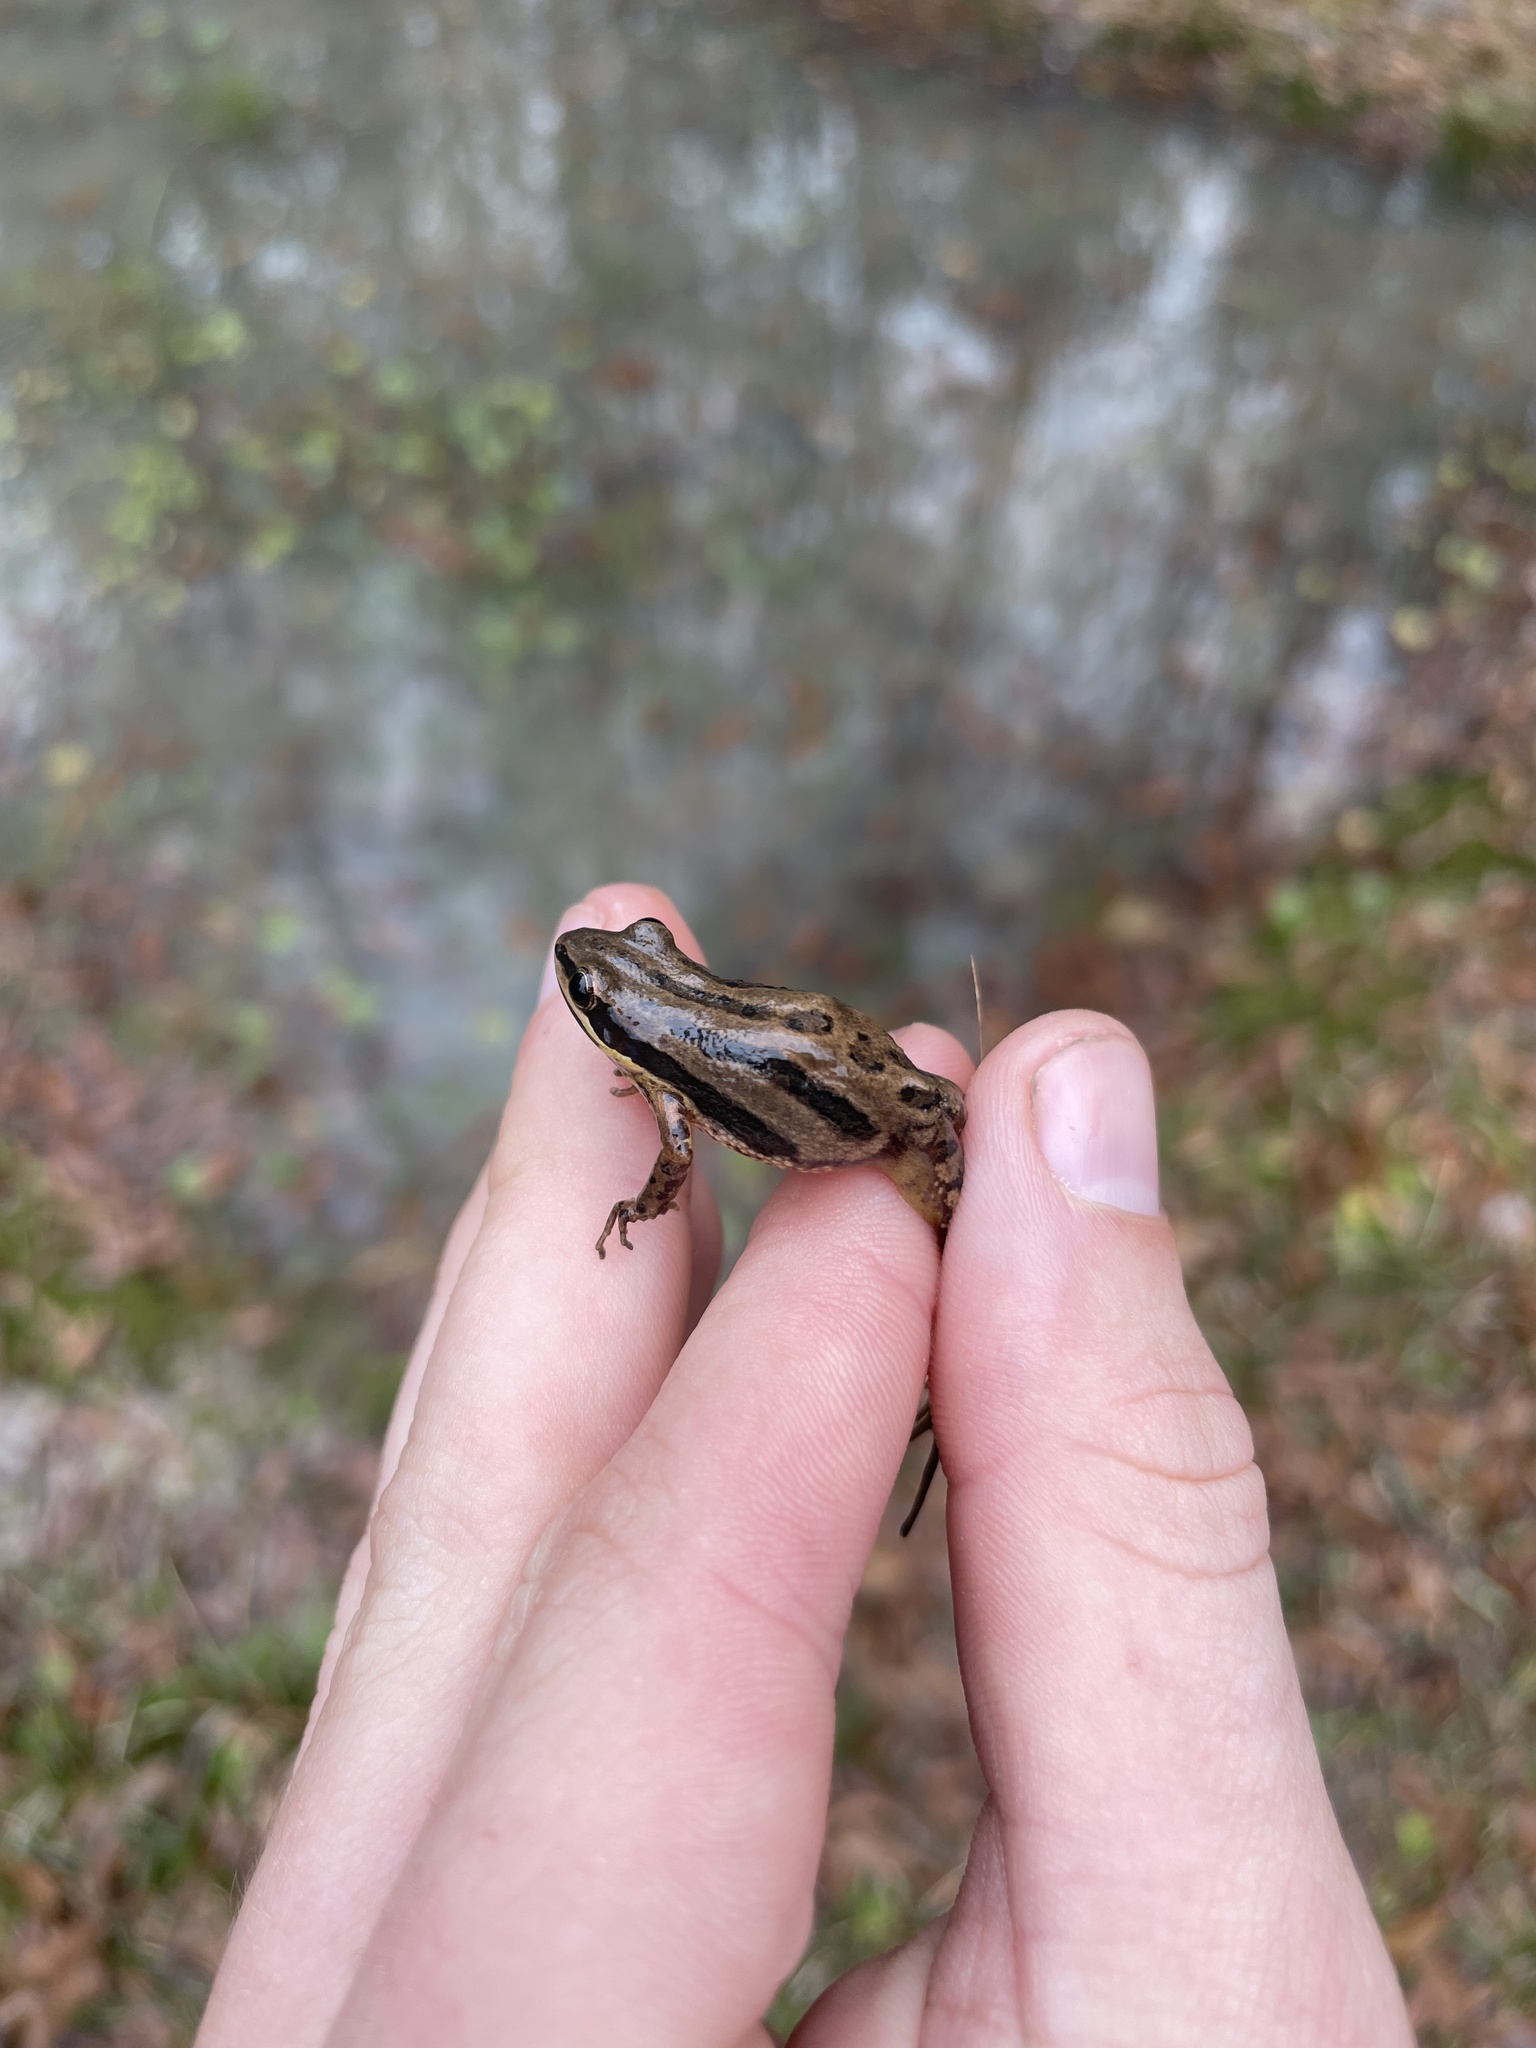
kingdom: Animalia
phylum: Chordata
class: Amphibia
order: Anura
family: Hylidae
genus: Pseudacris
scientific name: Pseudacris fouquettei
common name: Cajun chorus frog
